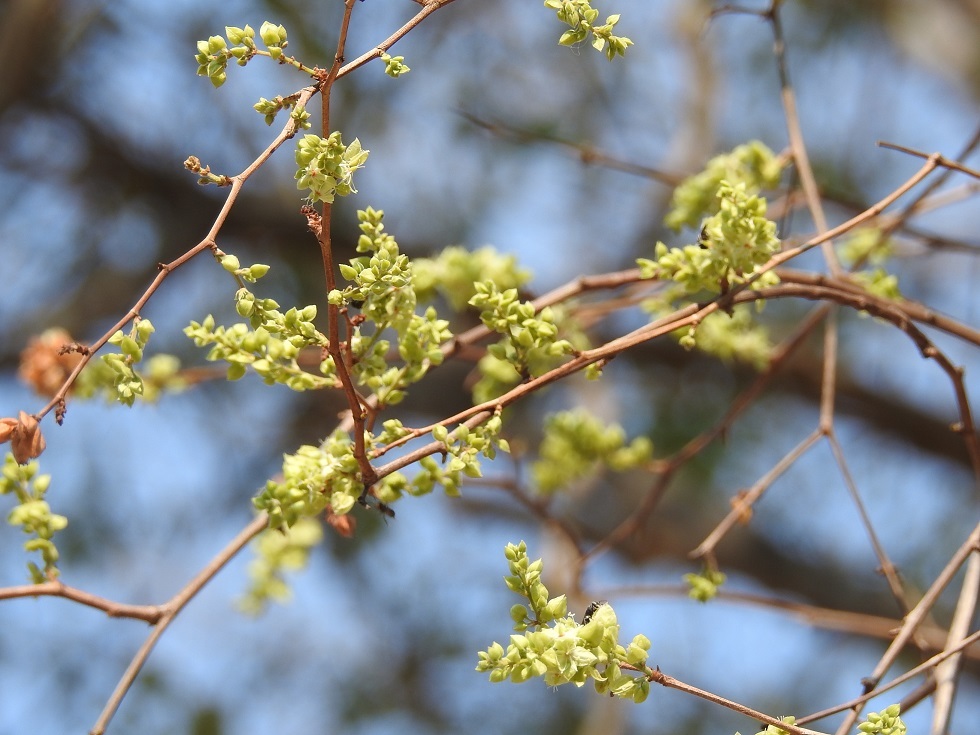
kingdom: Plantae
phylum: Tracheophyta
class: Magnoliopsida
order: Caryophyllales
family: Polygonaceae
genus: Gymnopodium
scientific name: Gymnopodium floribundum
